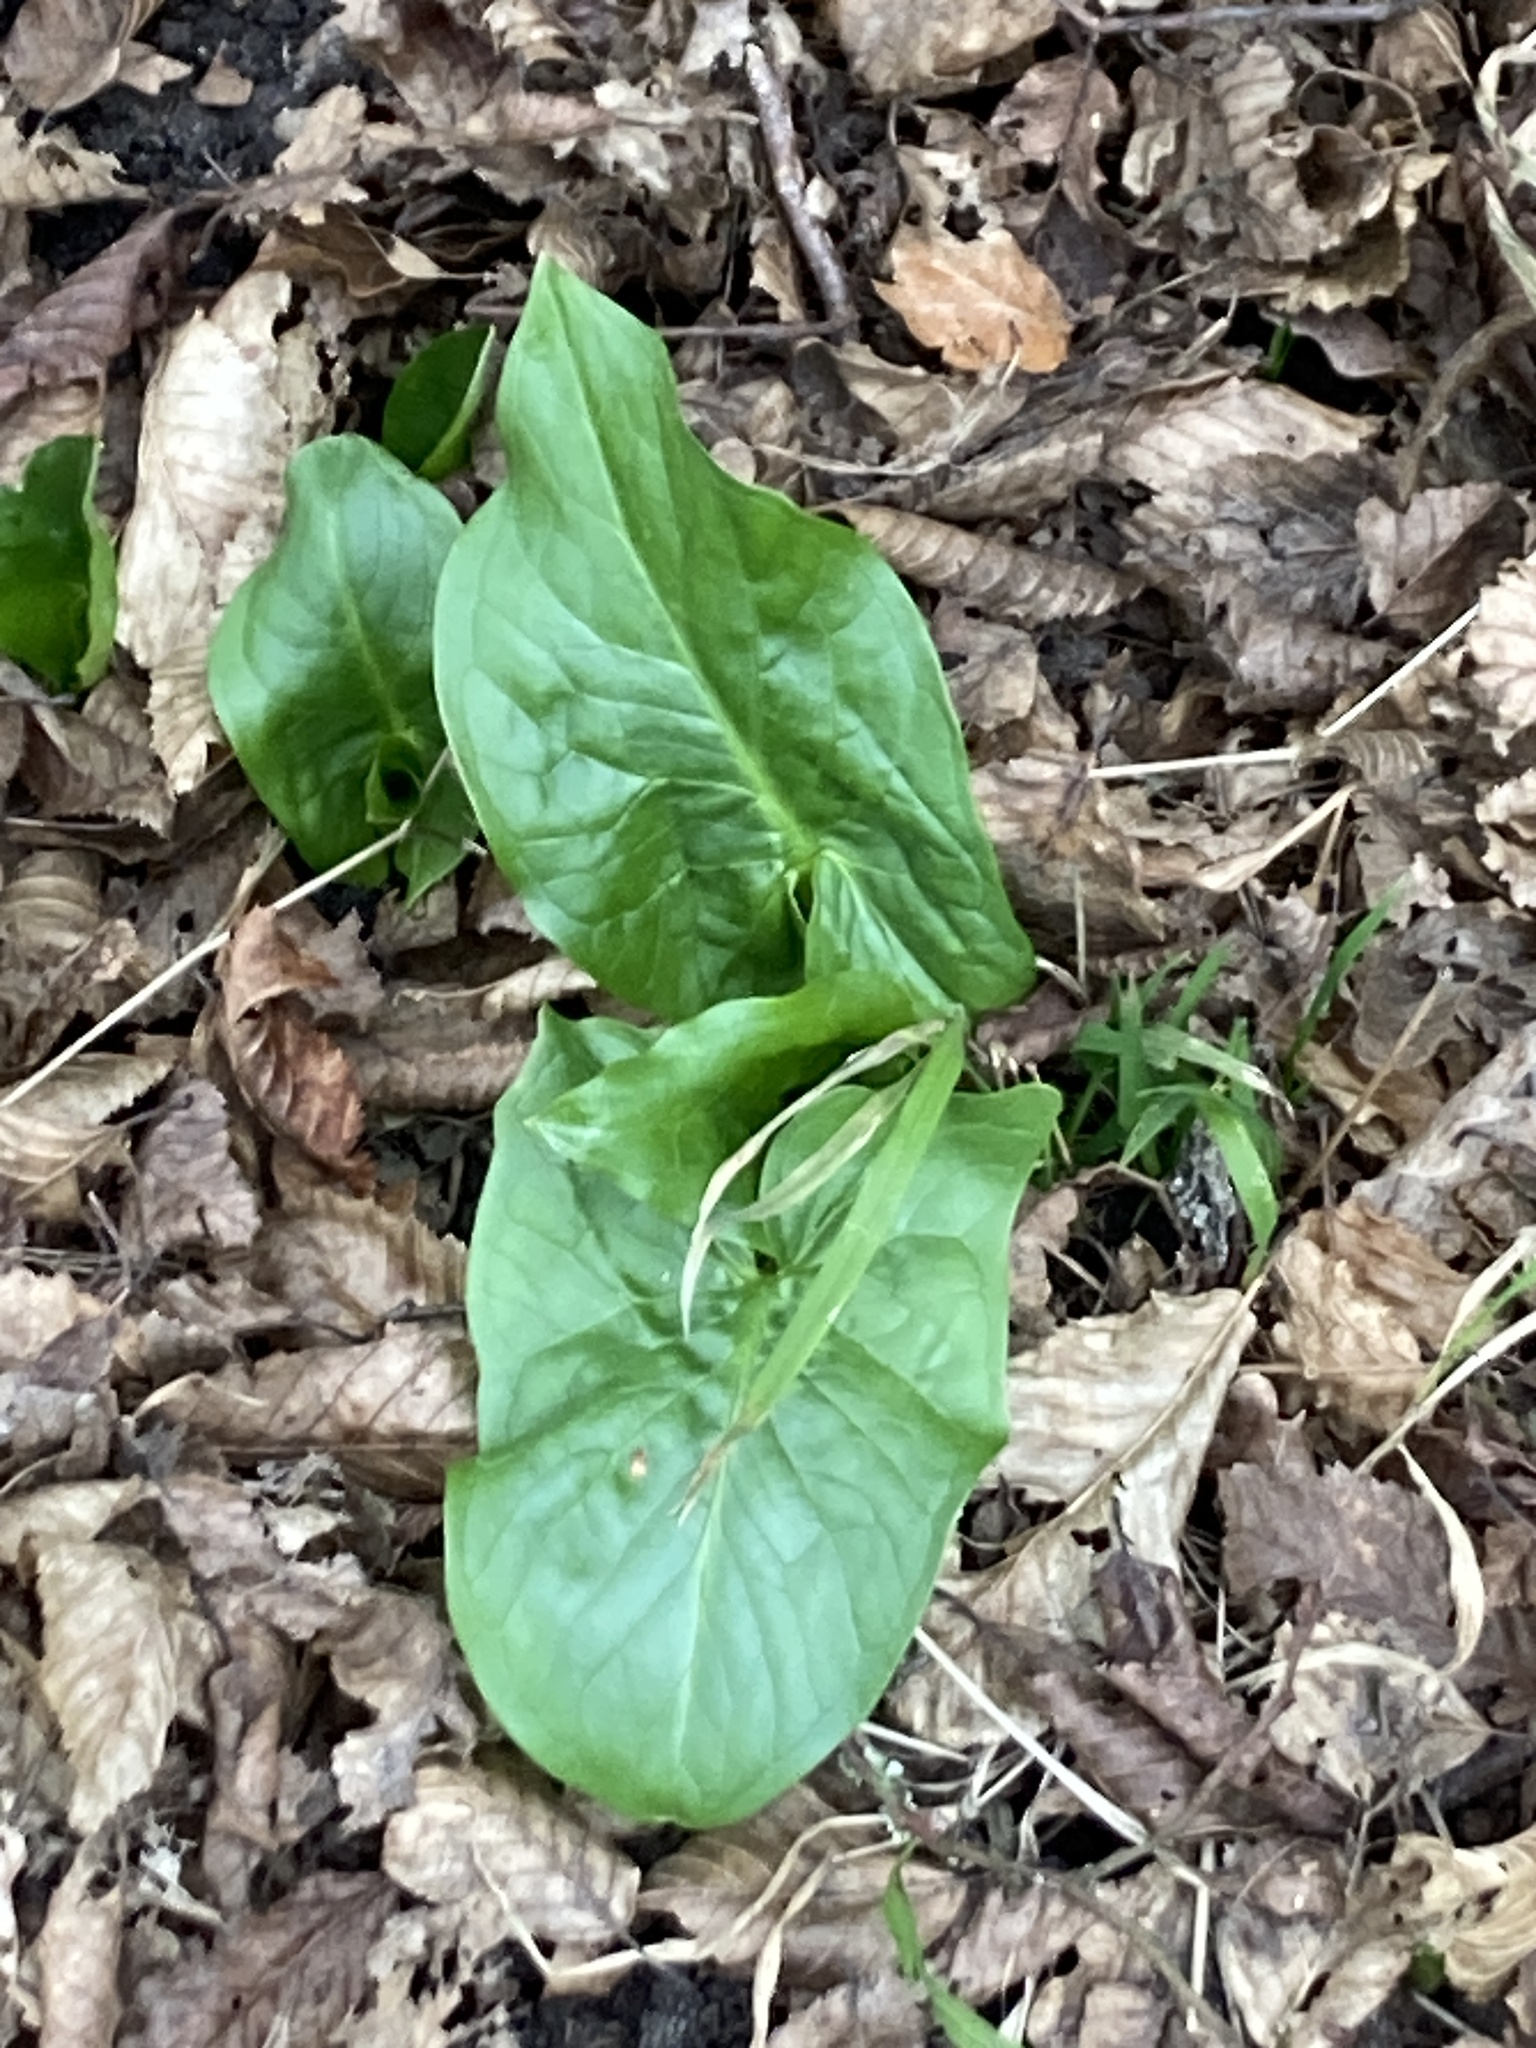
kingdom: Plantae
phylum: Tracheophyta
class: Liliopsida
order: Alismatales
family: Araceae
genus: Arum
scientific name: Arum maculatum
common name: Lords-and-ladies
